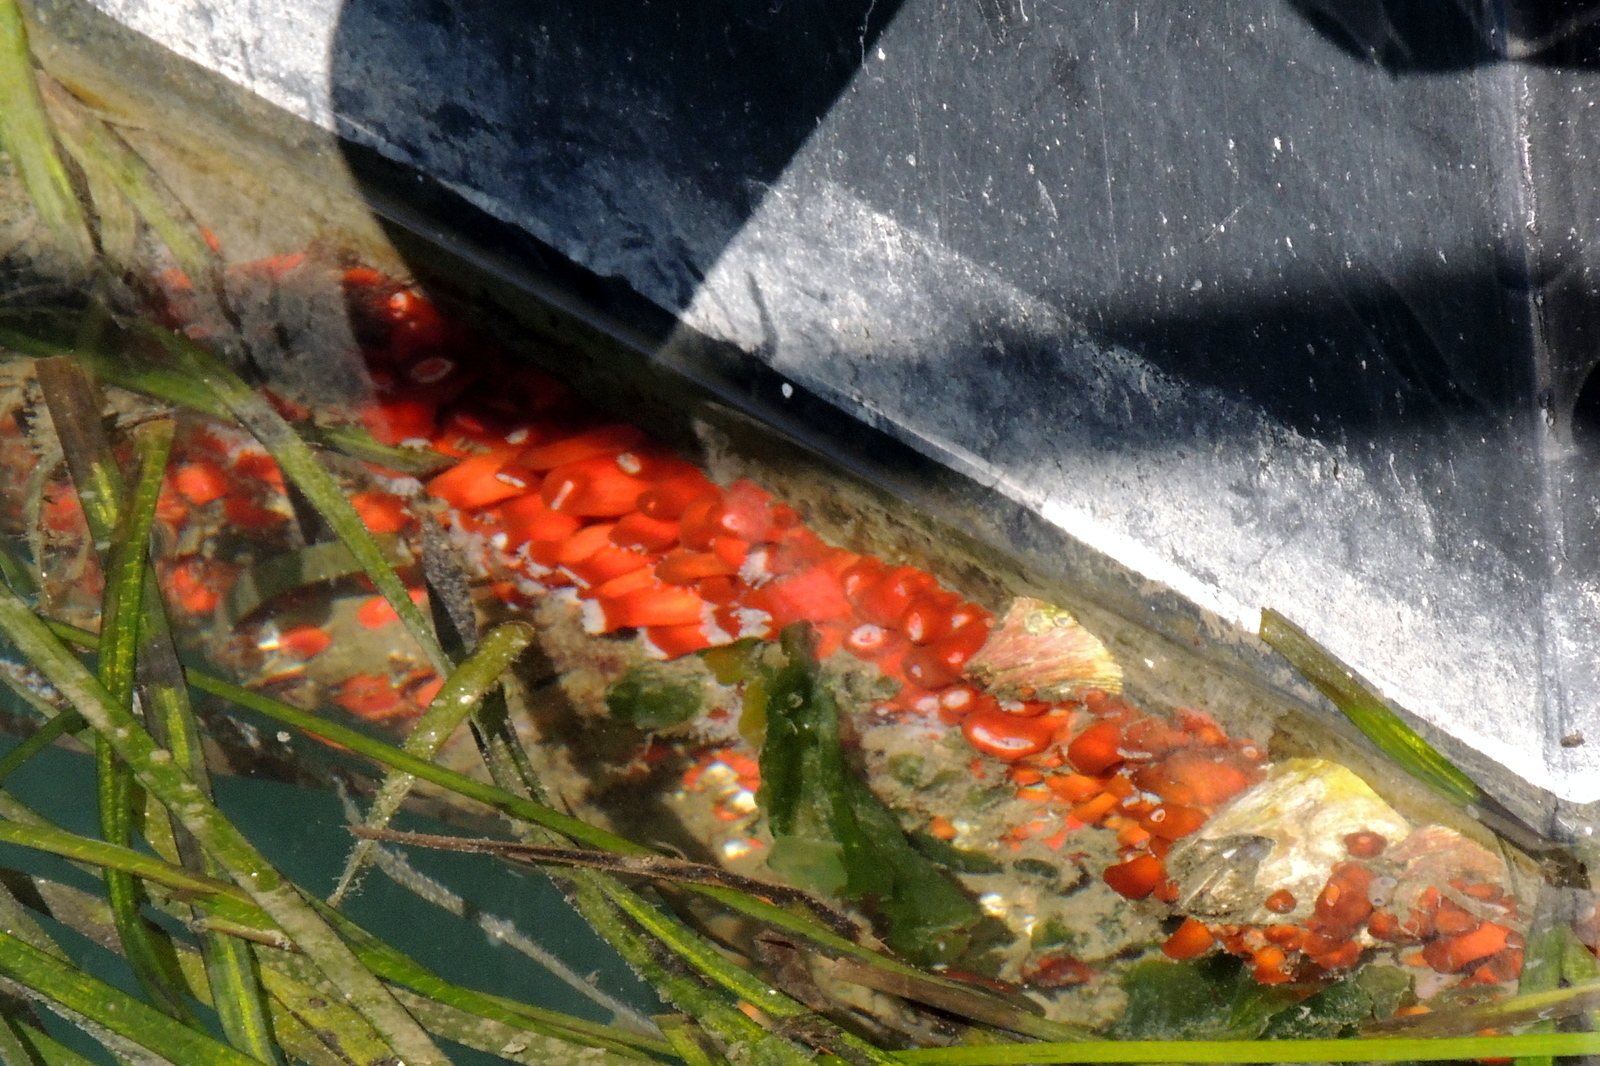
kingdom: Animalia
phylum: Cnidaria
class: Anthozoa
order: Corallimorpharia
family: Corallimorphidae
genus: Corynactis
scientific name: Corynactis californica
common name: Strawberry corallimorpharian
